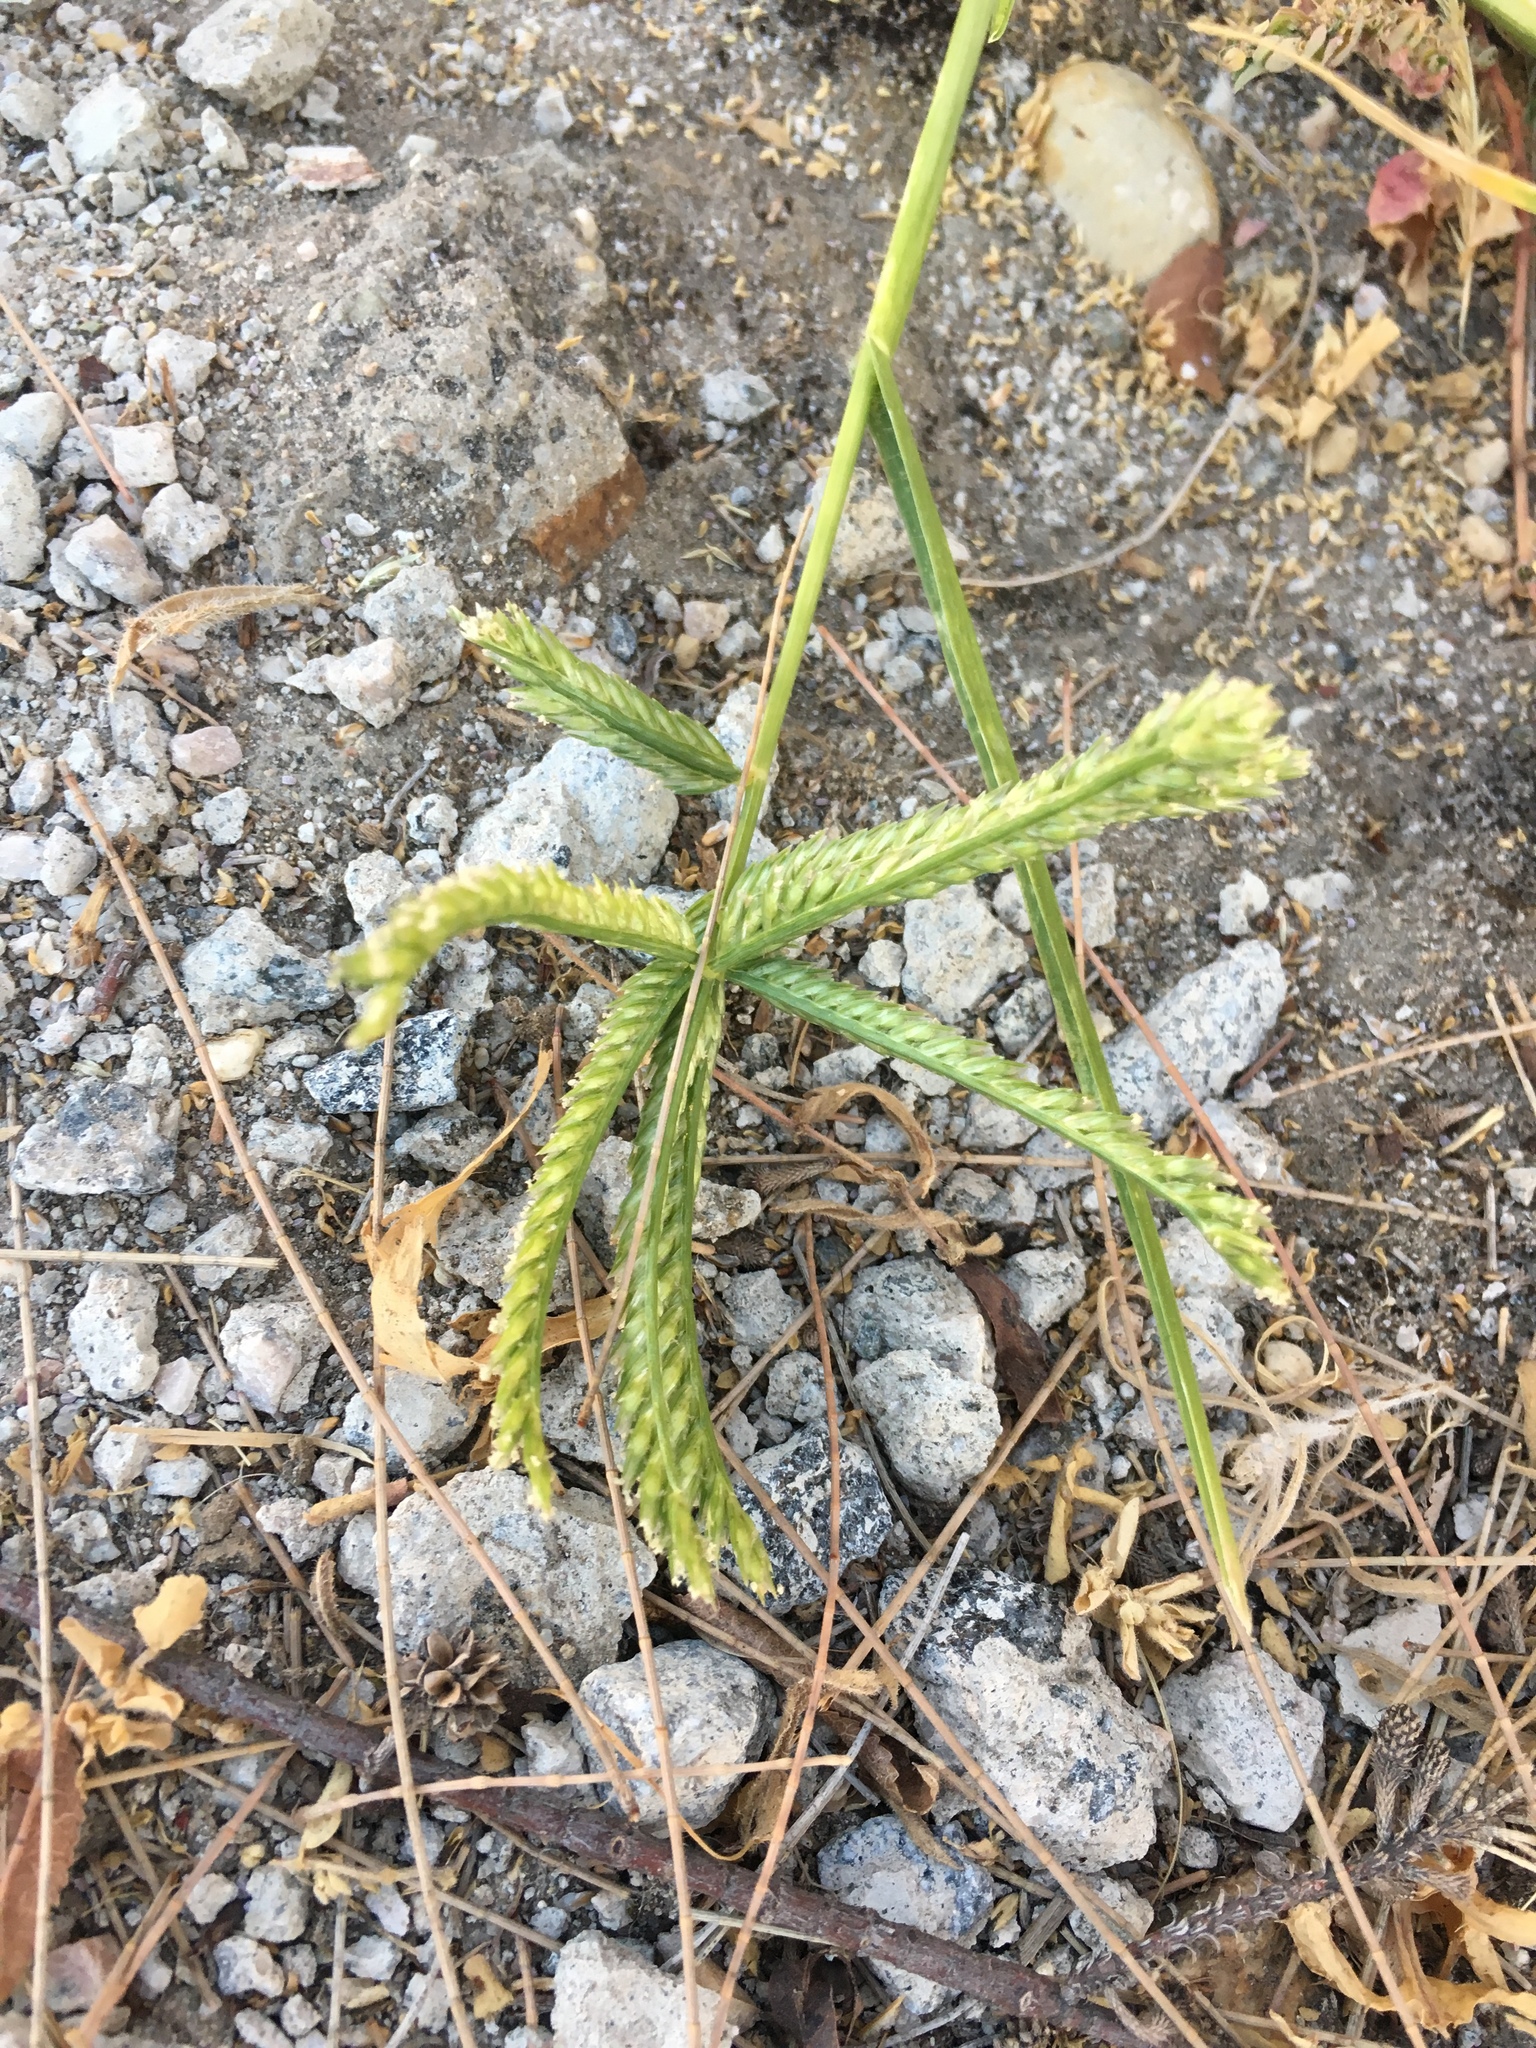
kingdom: Plantae
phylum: Tracheophyta
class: Liliopsida
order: Poales
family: Poaceae
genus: Eleusine
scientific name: Eleusine indica
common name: Yard-grass
